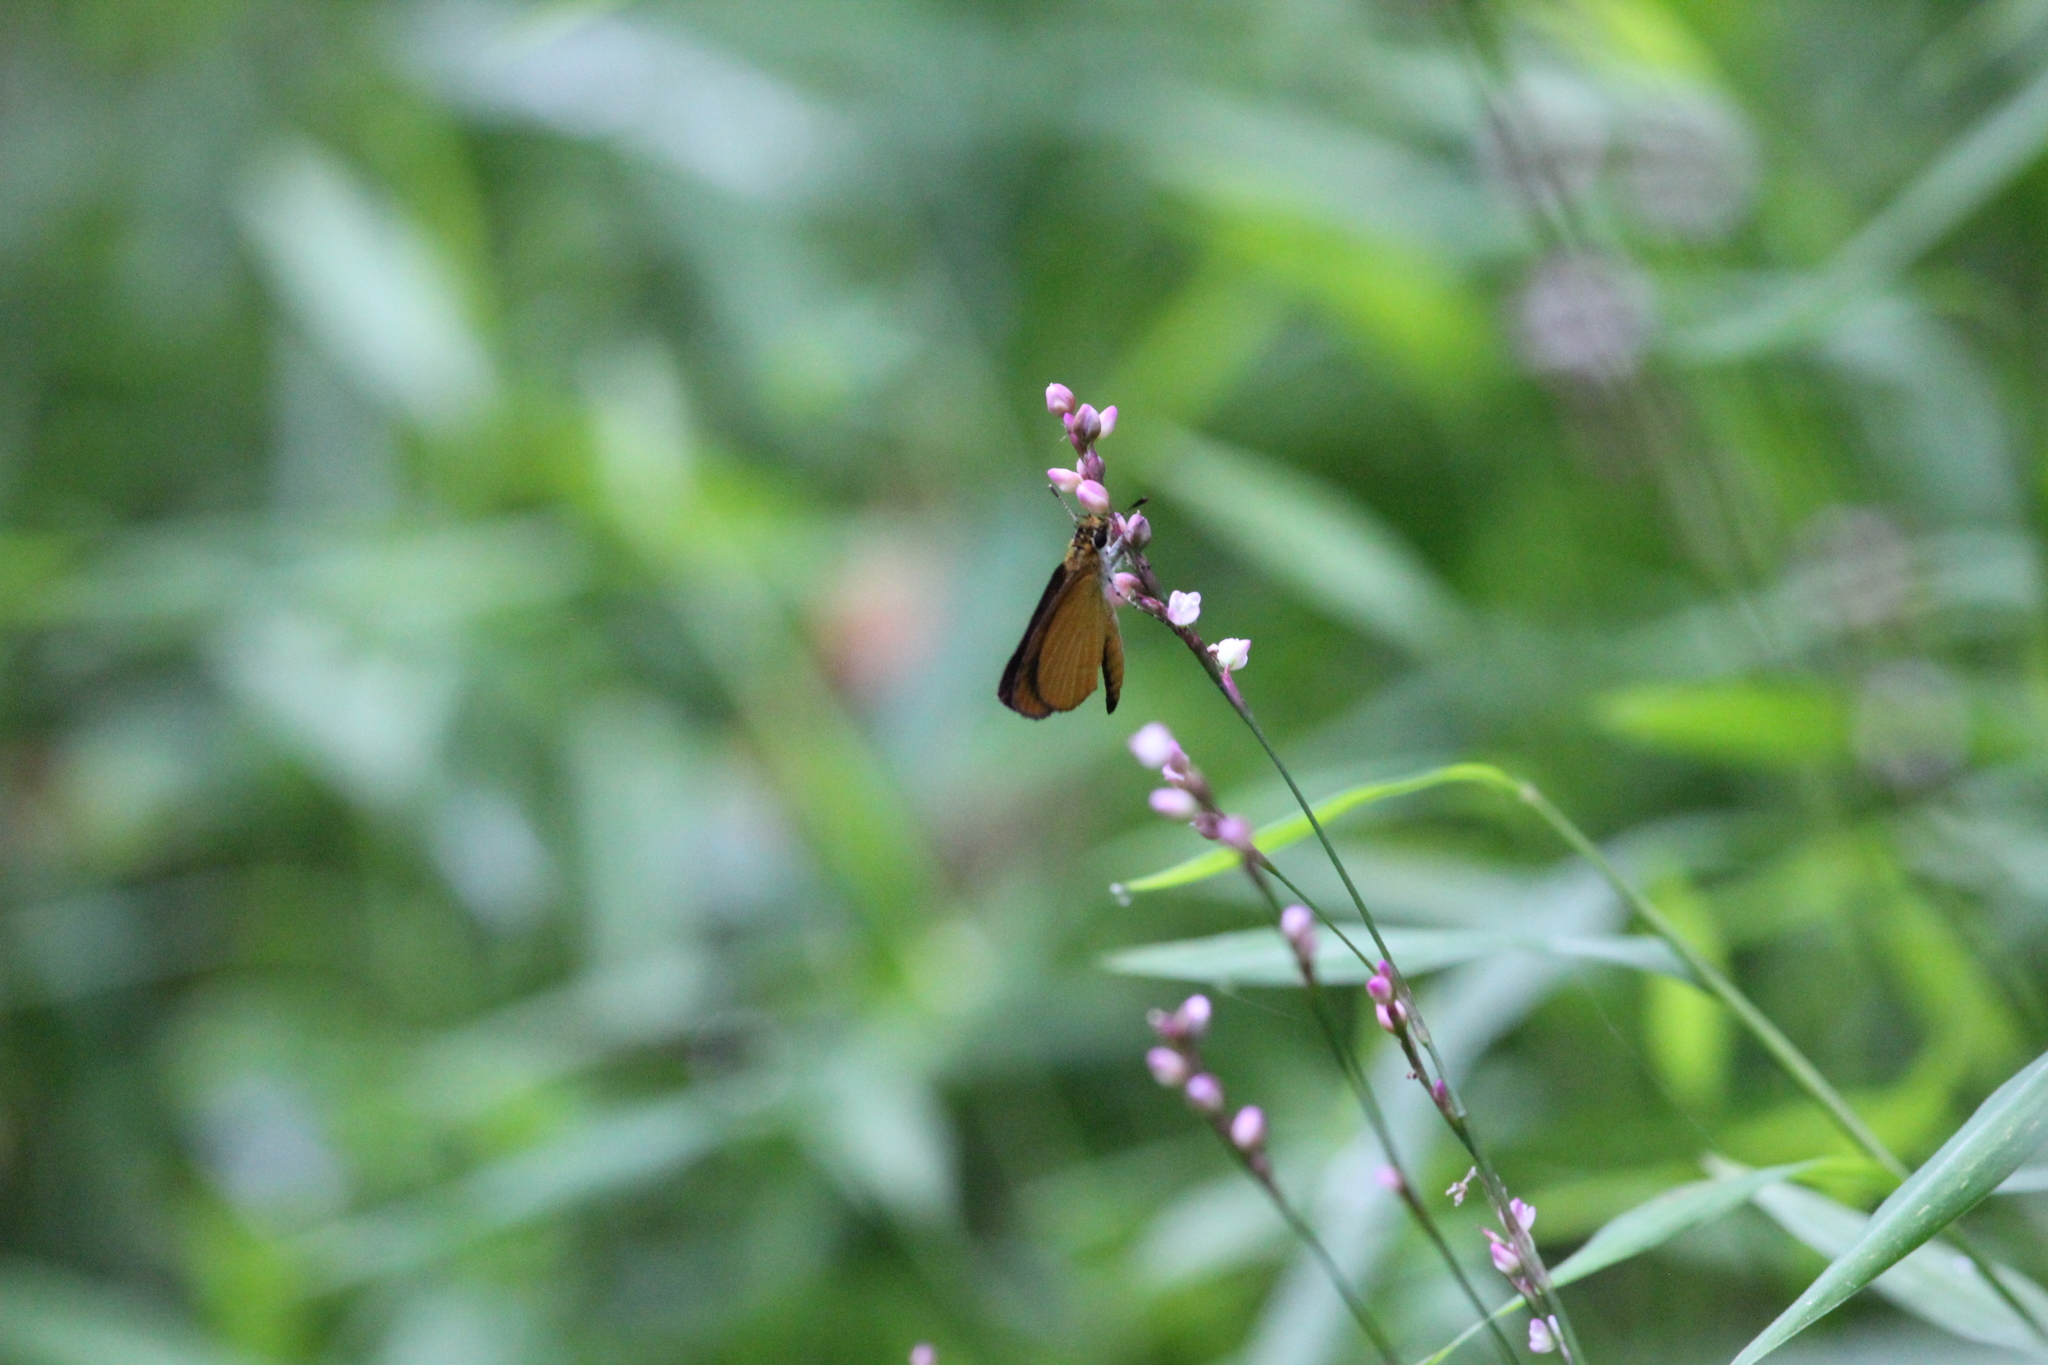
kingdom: Animalia
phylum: Arthropoda
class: Insecta
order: Lepidoptera
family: Hesperiidae
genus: Ancyloxypha
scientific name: Ancyloxypha numitor
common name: Least skipper
